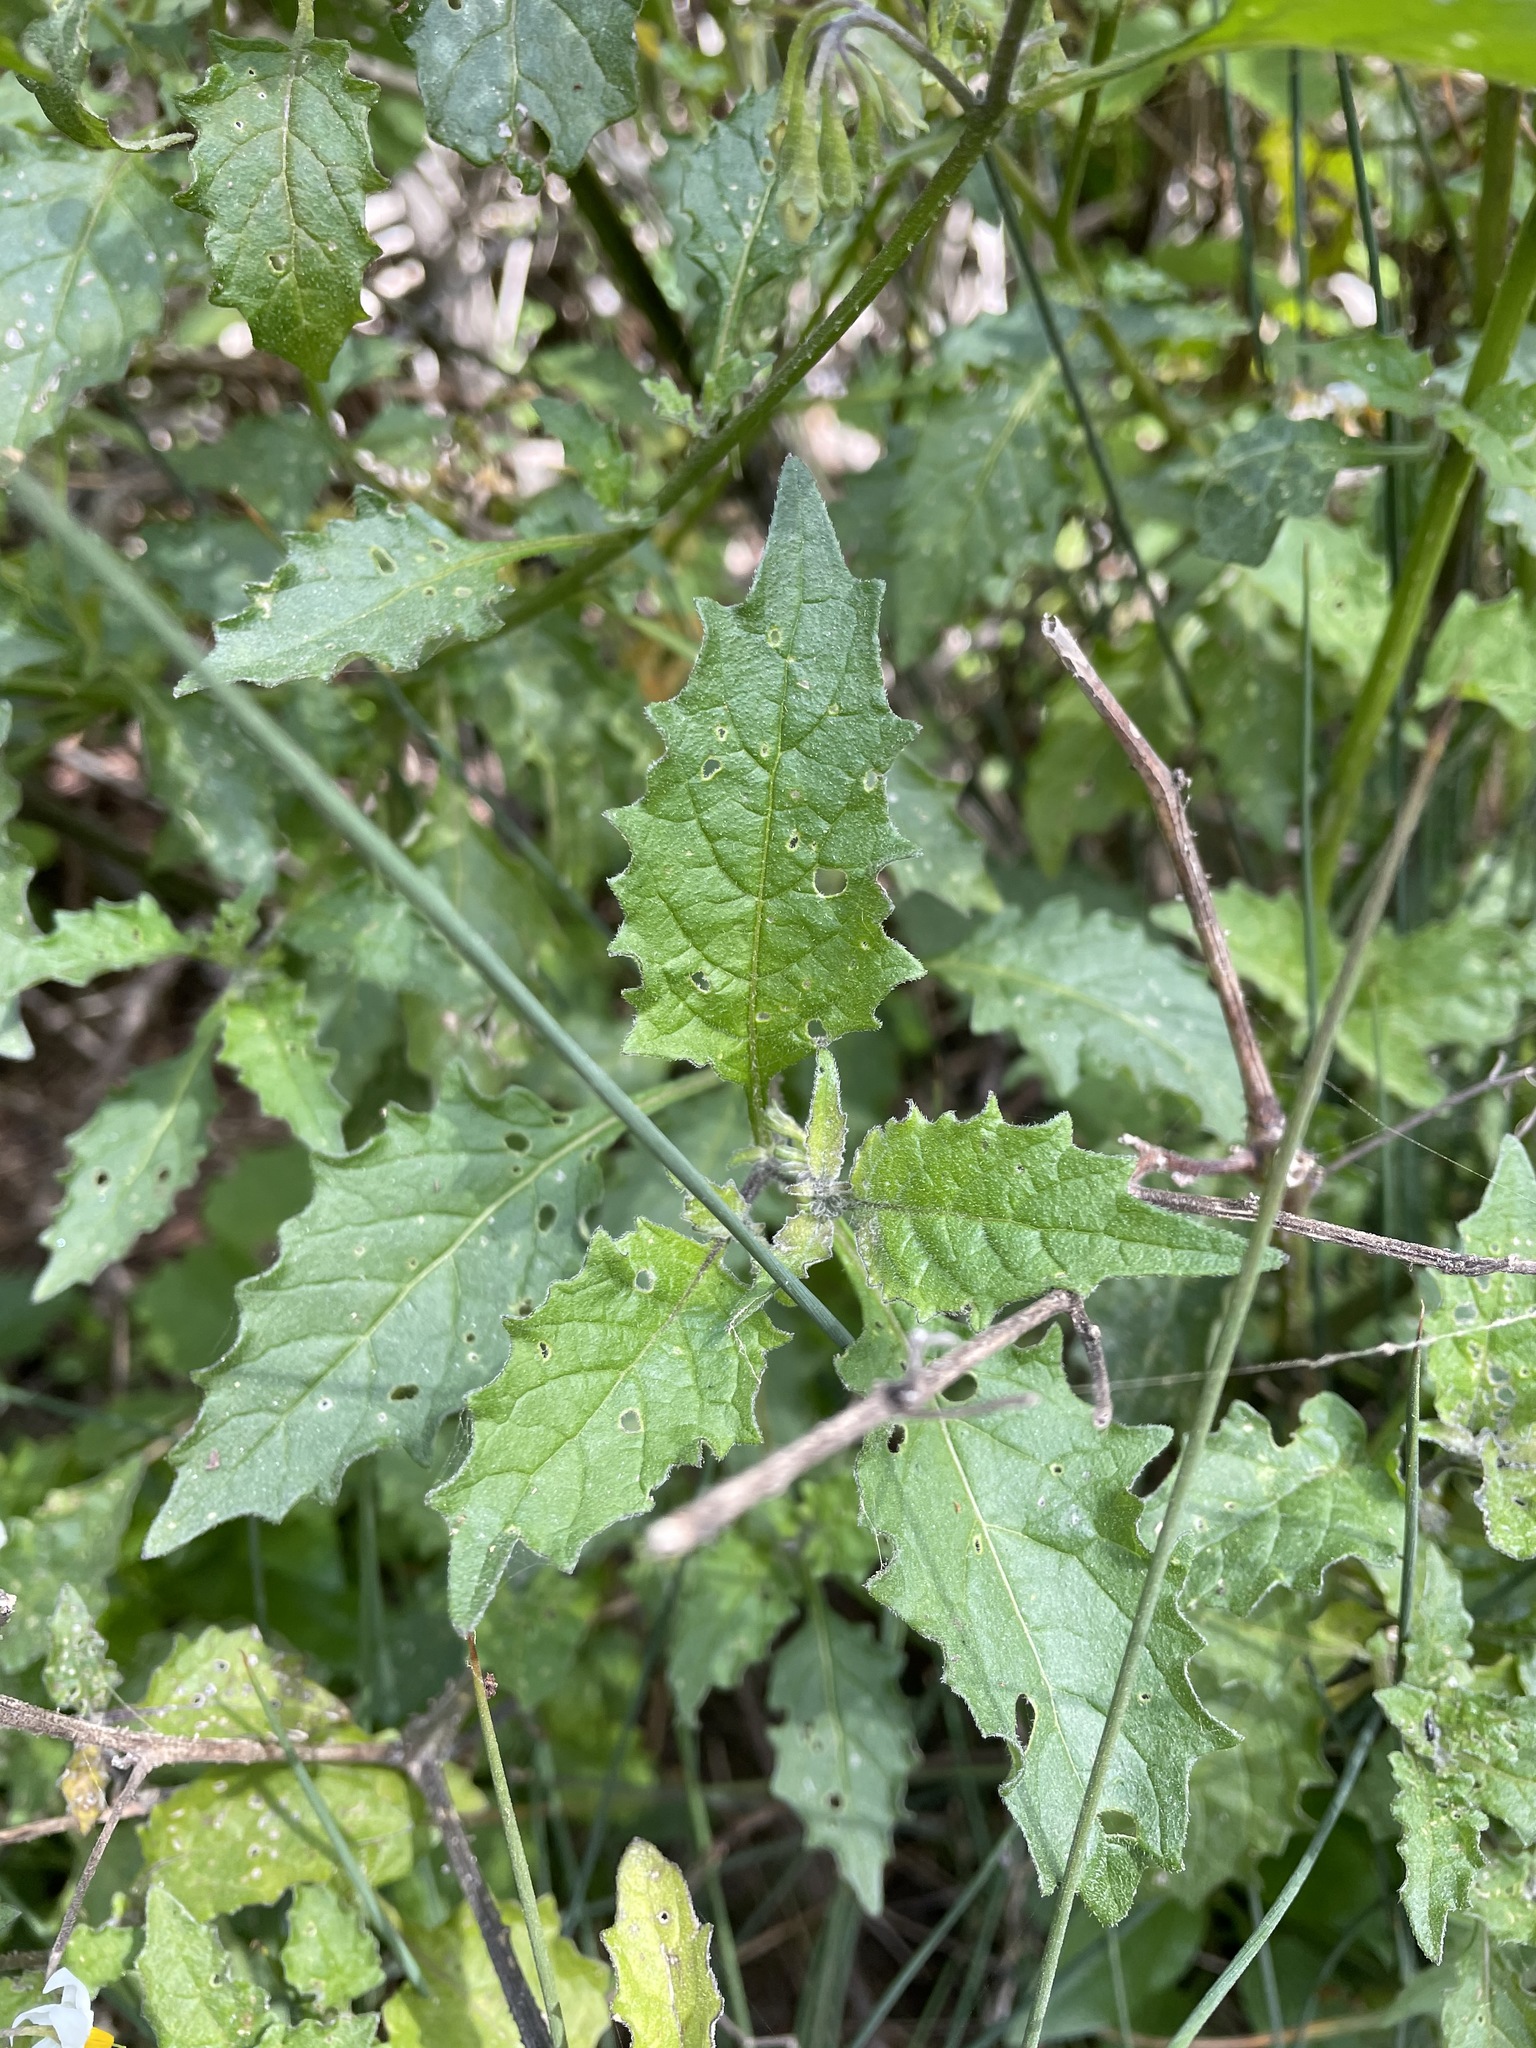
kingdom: Plantae
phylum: Tracheophyta
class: Magnoliopsida
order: Solanales
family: Solanaceae
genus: Solanum
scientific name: Solanum douglasii
